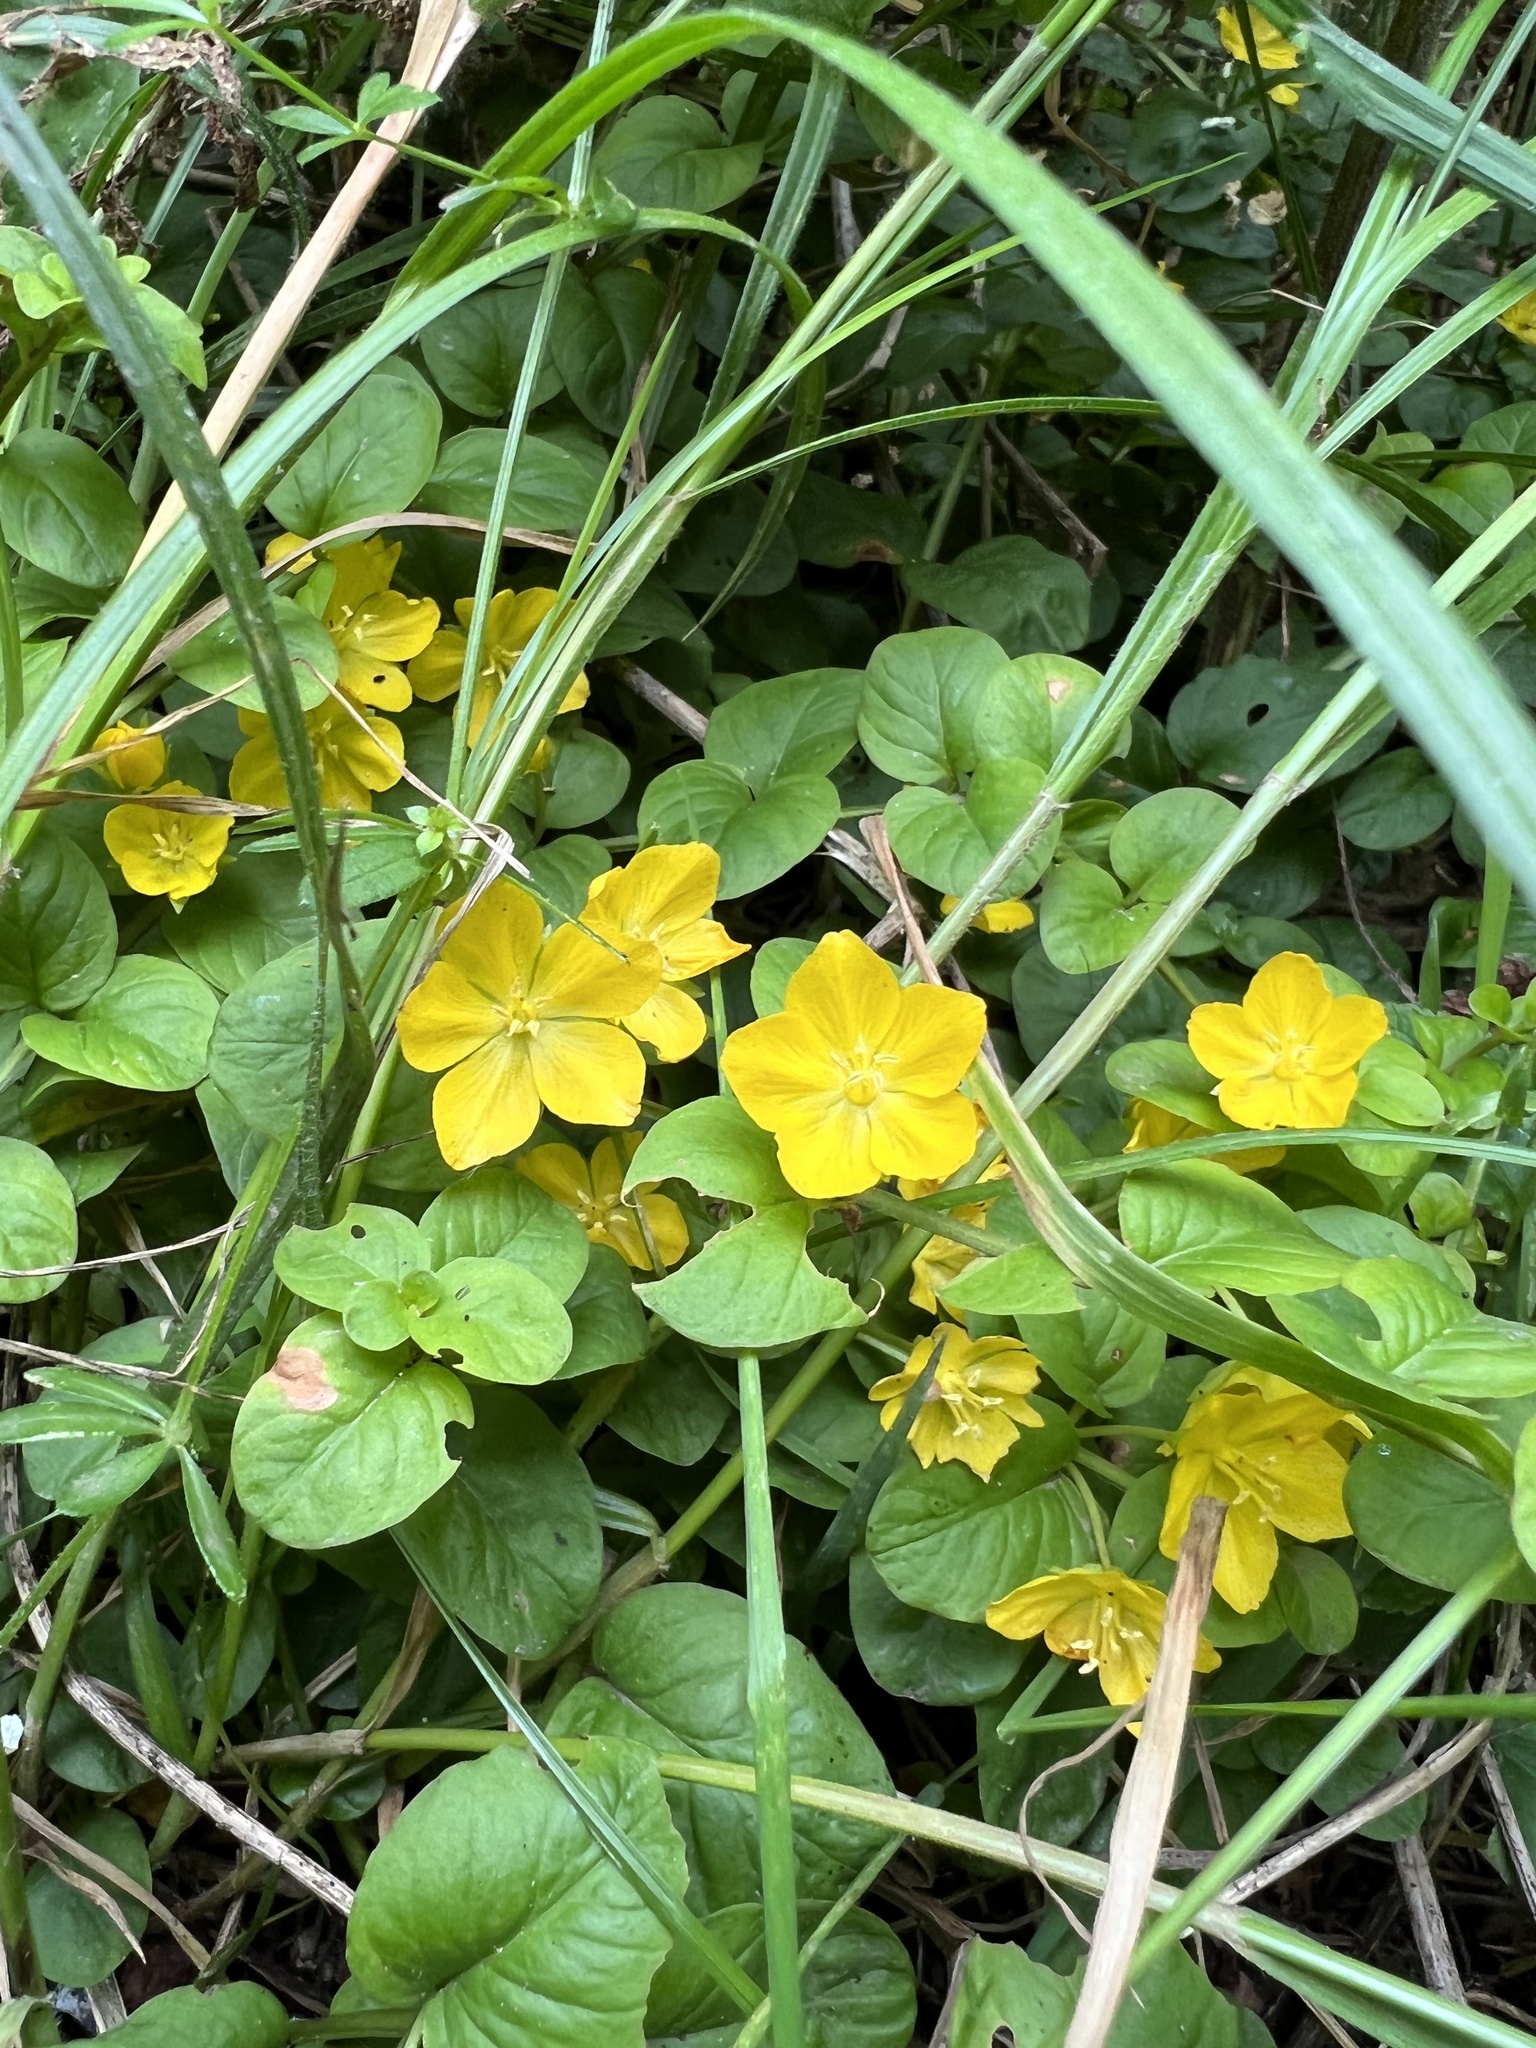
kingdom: Plantae
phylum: Tracheophyta
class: Magnoliopsida
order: Ericales
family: Primulaceae
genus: Lysimachia
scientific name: Lysimachia nummularia
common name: Moneywort
